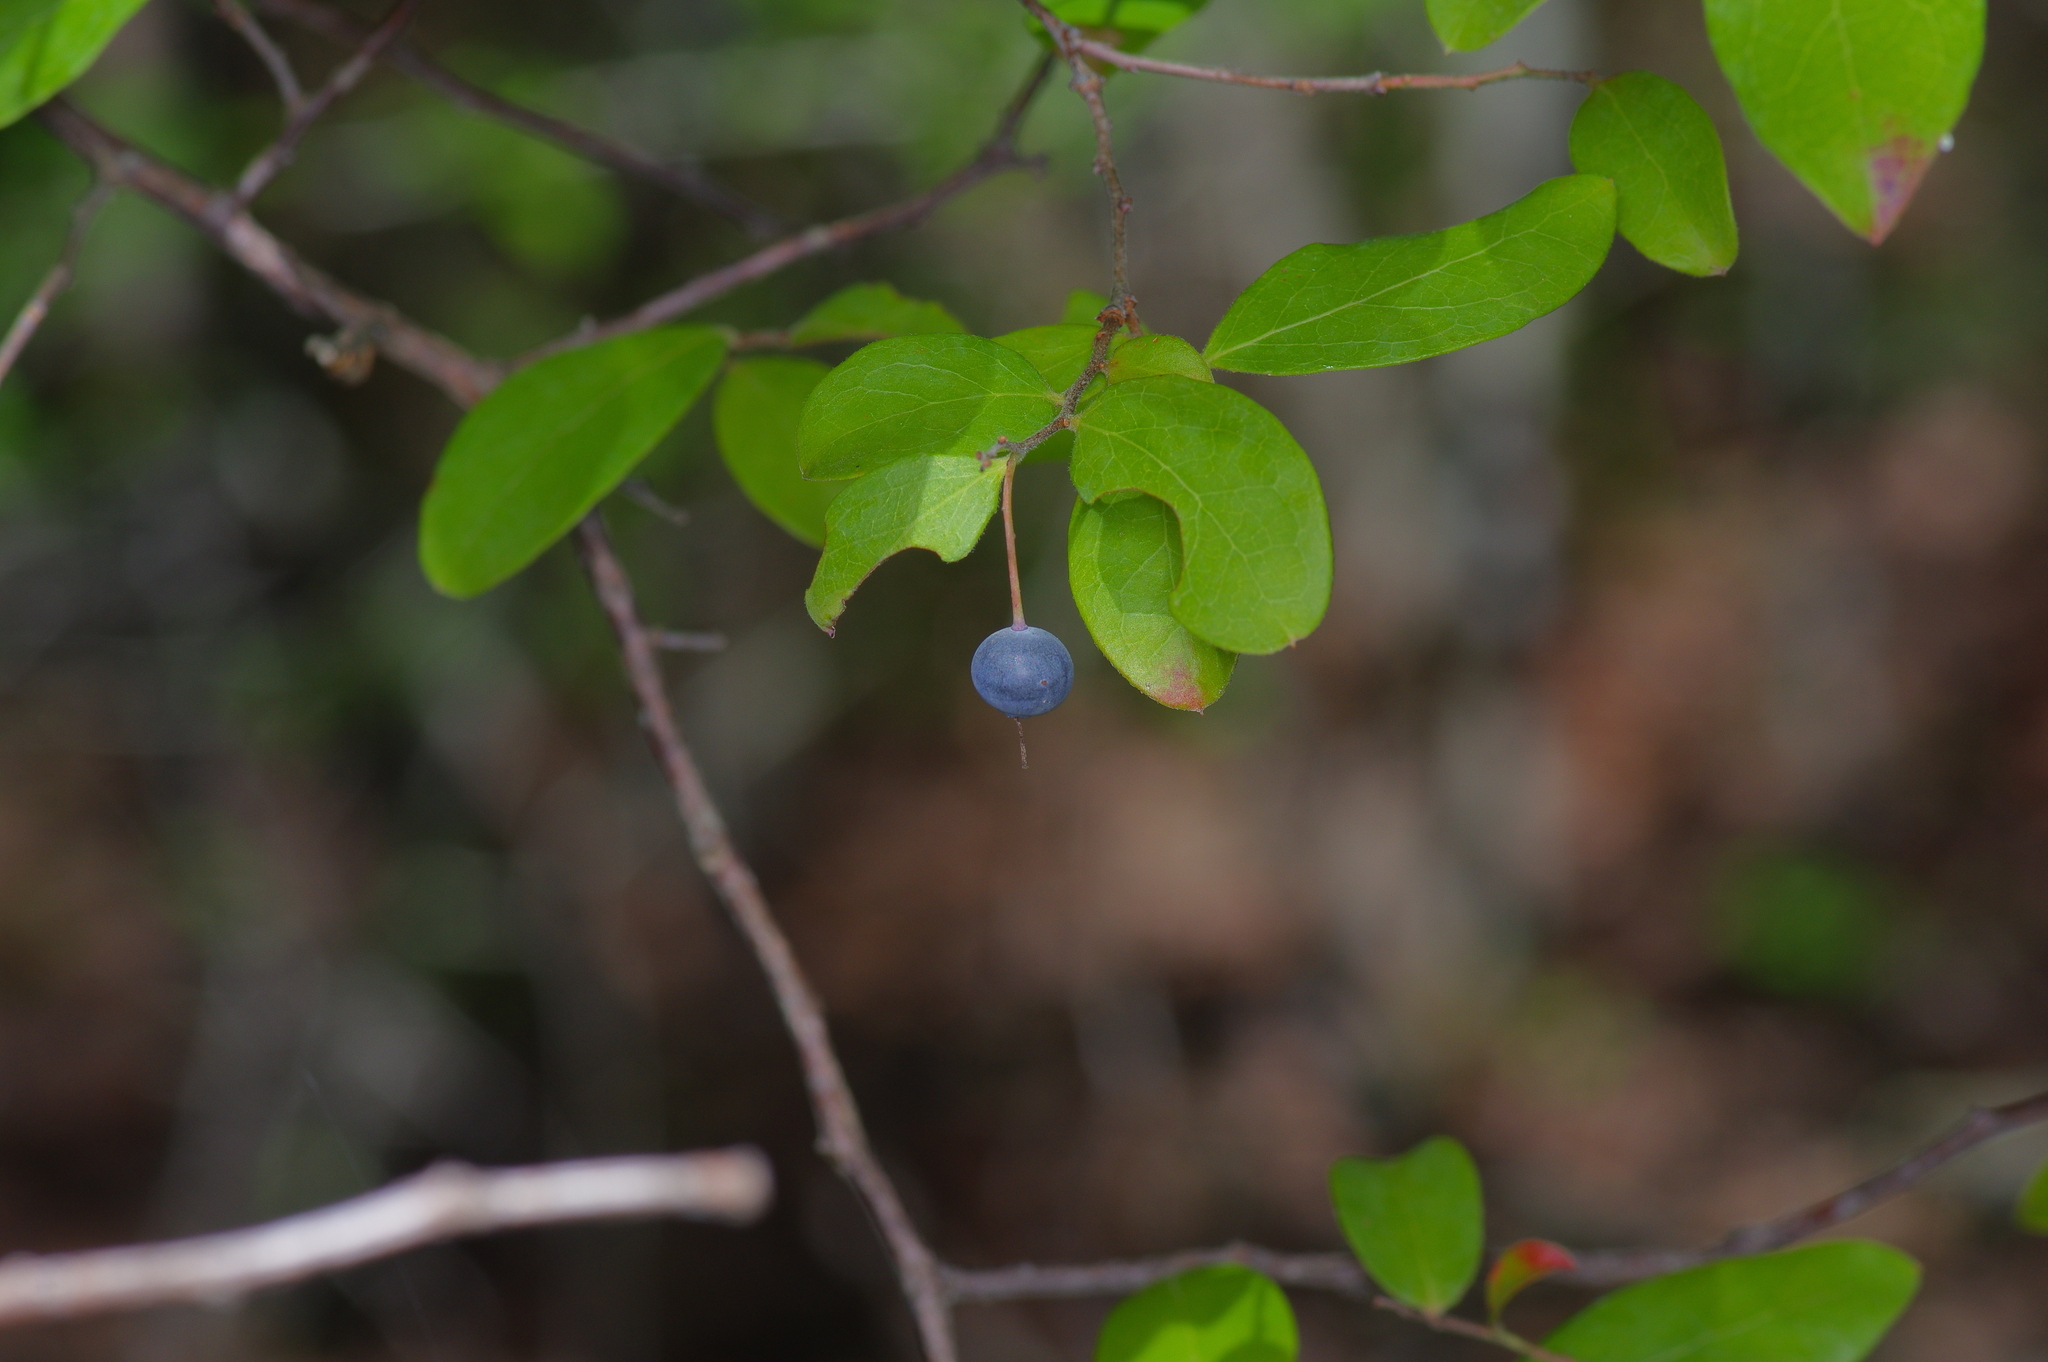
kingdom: Plantae
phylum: Tracheophyta
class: Magnoliopsida
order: Ericales
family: Ericaceae
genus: Vaccinium
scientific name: Vaccinium arboreum
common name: Farkleberry
